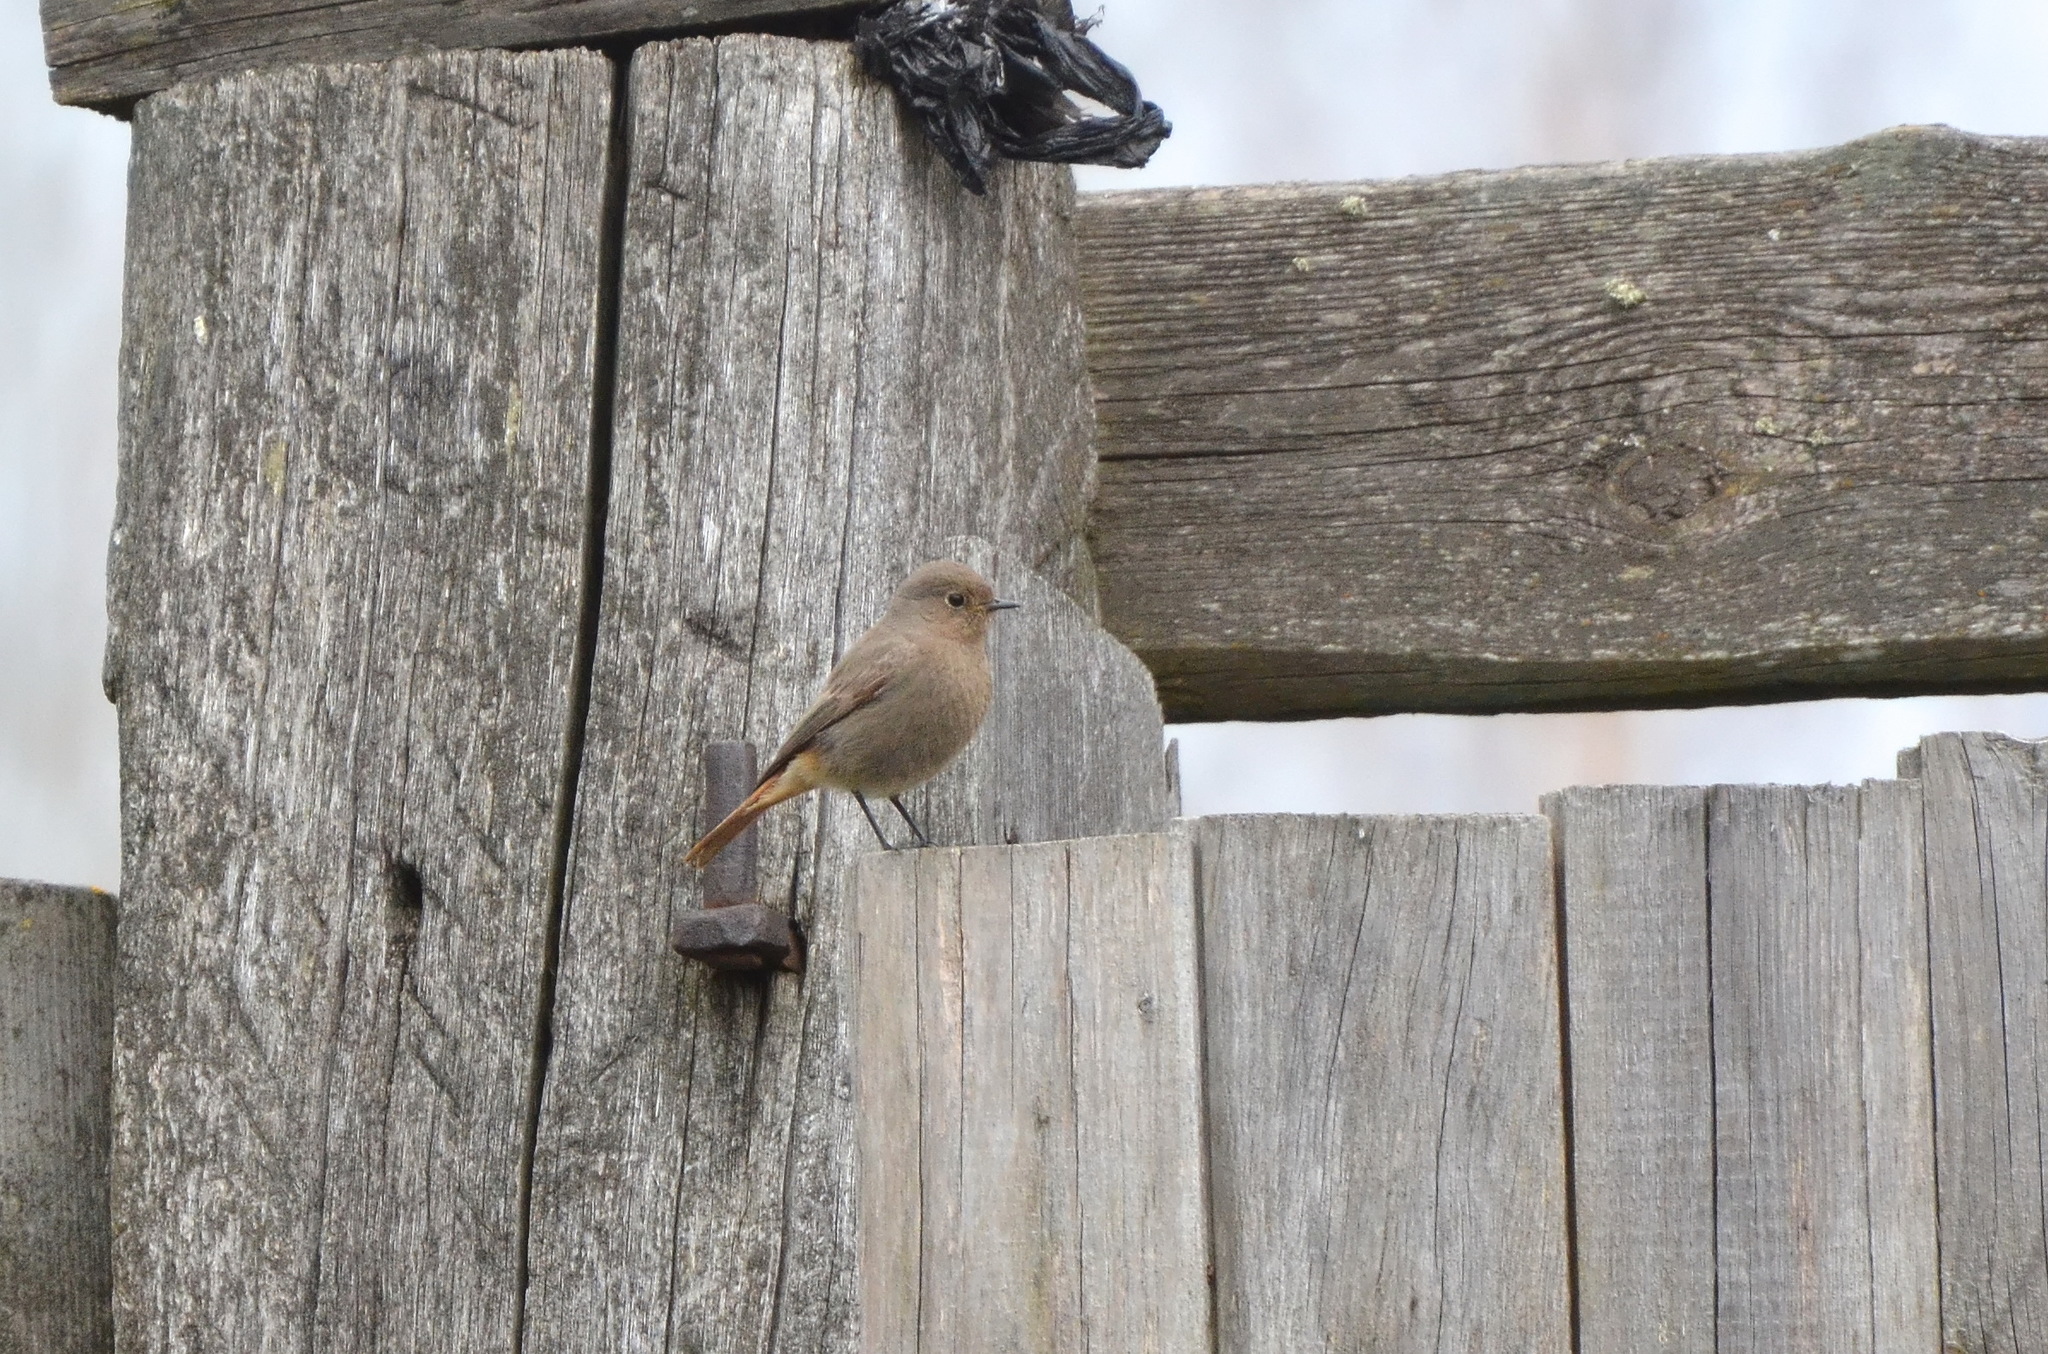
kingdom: Animalia
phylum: Chordata
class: Aves
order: Passeriformes
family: Muscicapidae
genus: Phoenicurus
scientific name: Phoenicurus ochruros
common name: Black redstart
